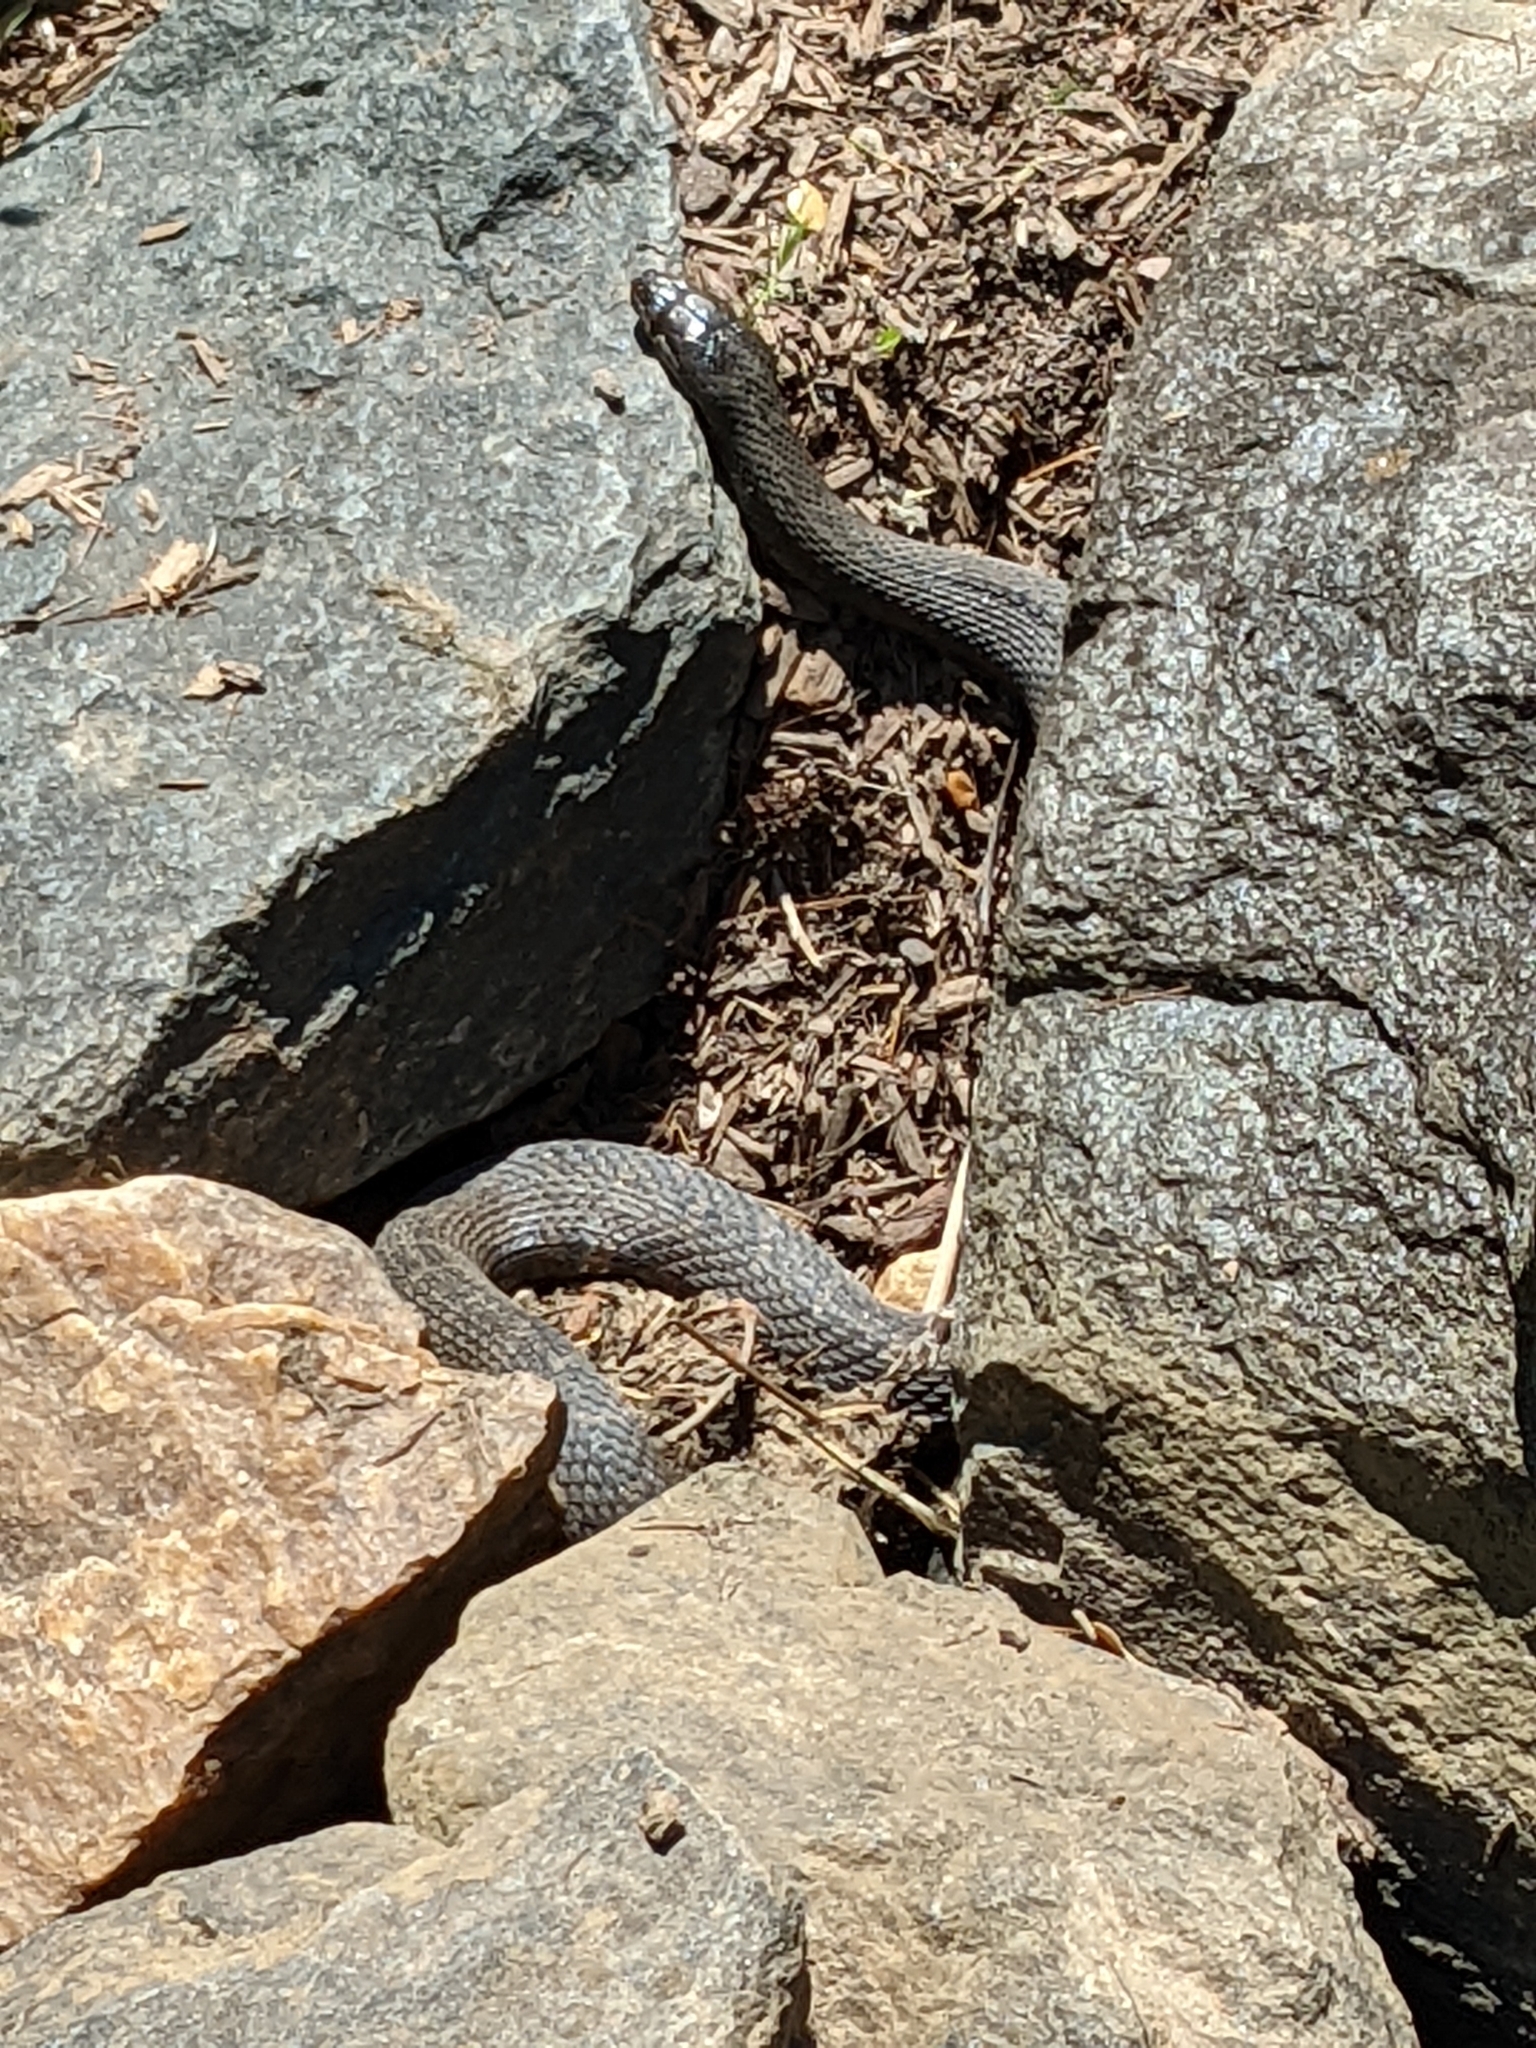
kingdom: Animalia
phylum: Chordata
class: Squamata
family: Colubridae
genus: Nerodia
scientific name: Nerodia sipedon
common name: Northern water snake
